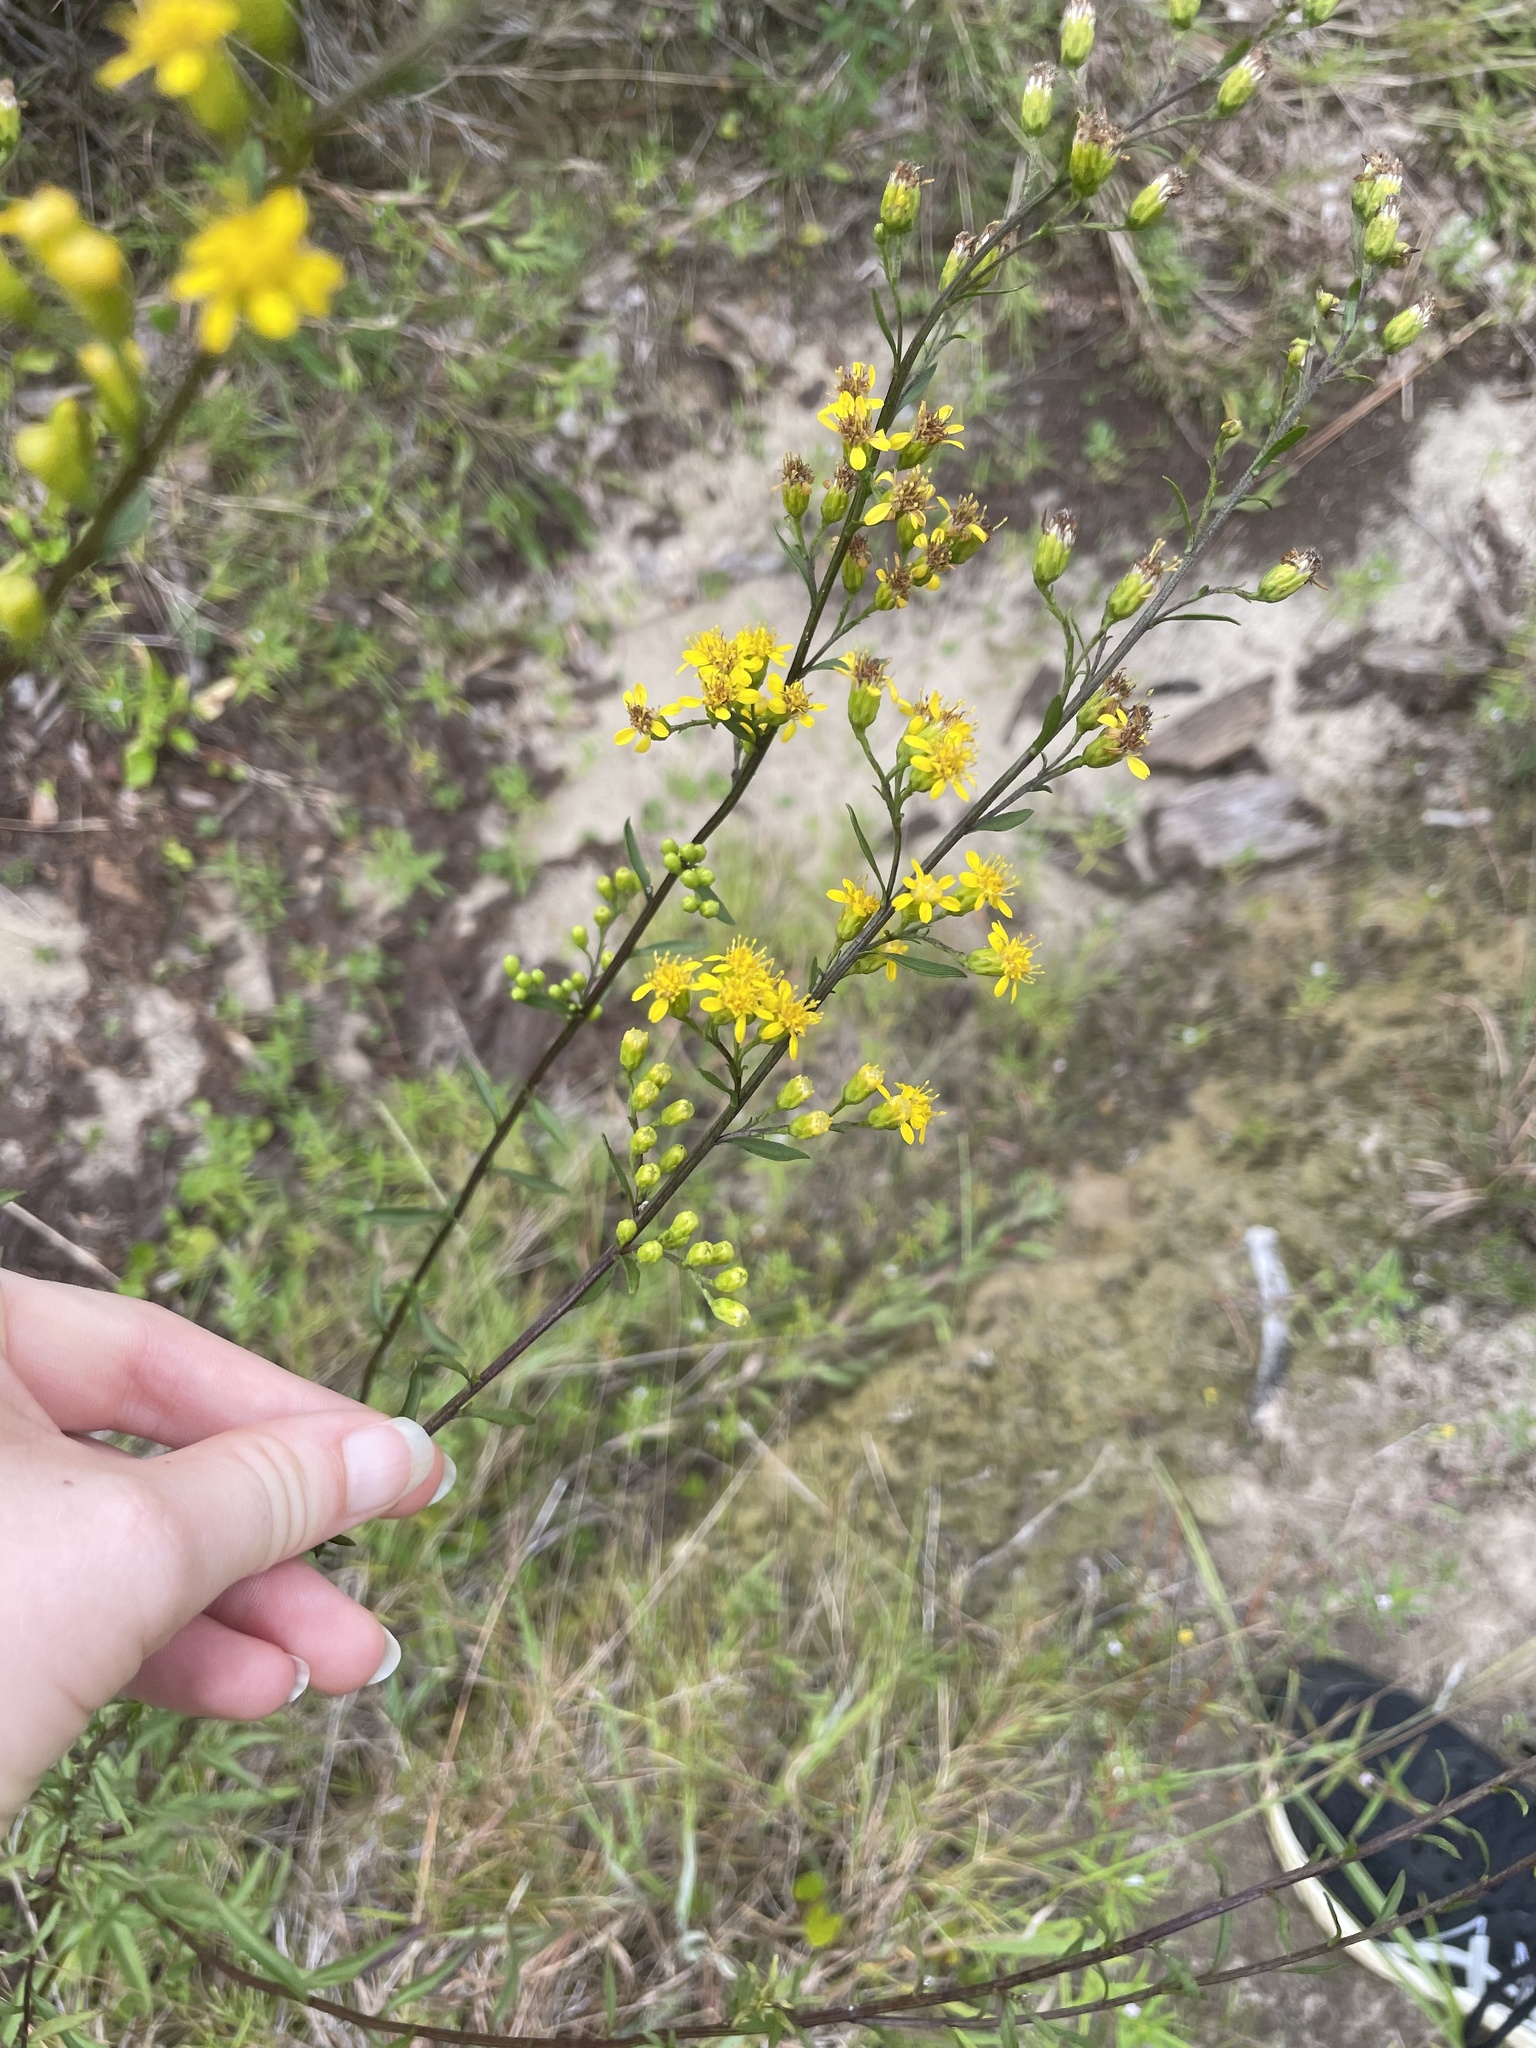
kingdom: Plantae
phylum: Tracheophyta
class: Magnoliopsida
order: Asterales
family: Asteraceae
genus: Solidago
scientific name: Solidago arguta
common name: Atlantic goldenrod
